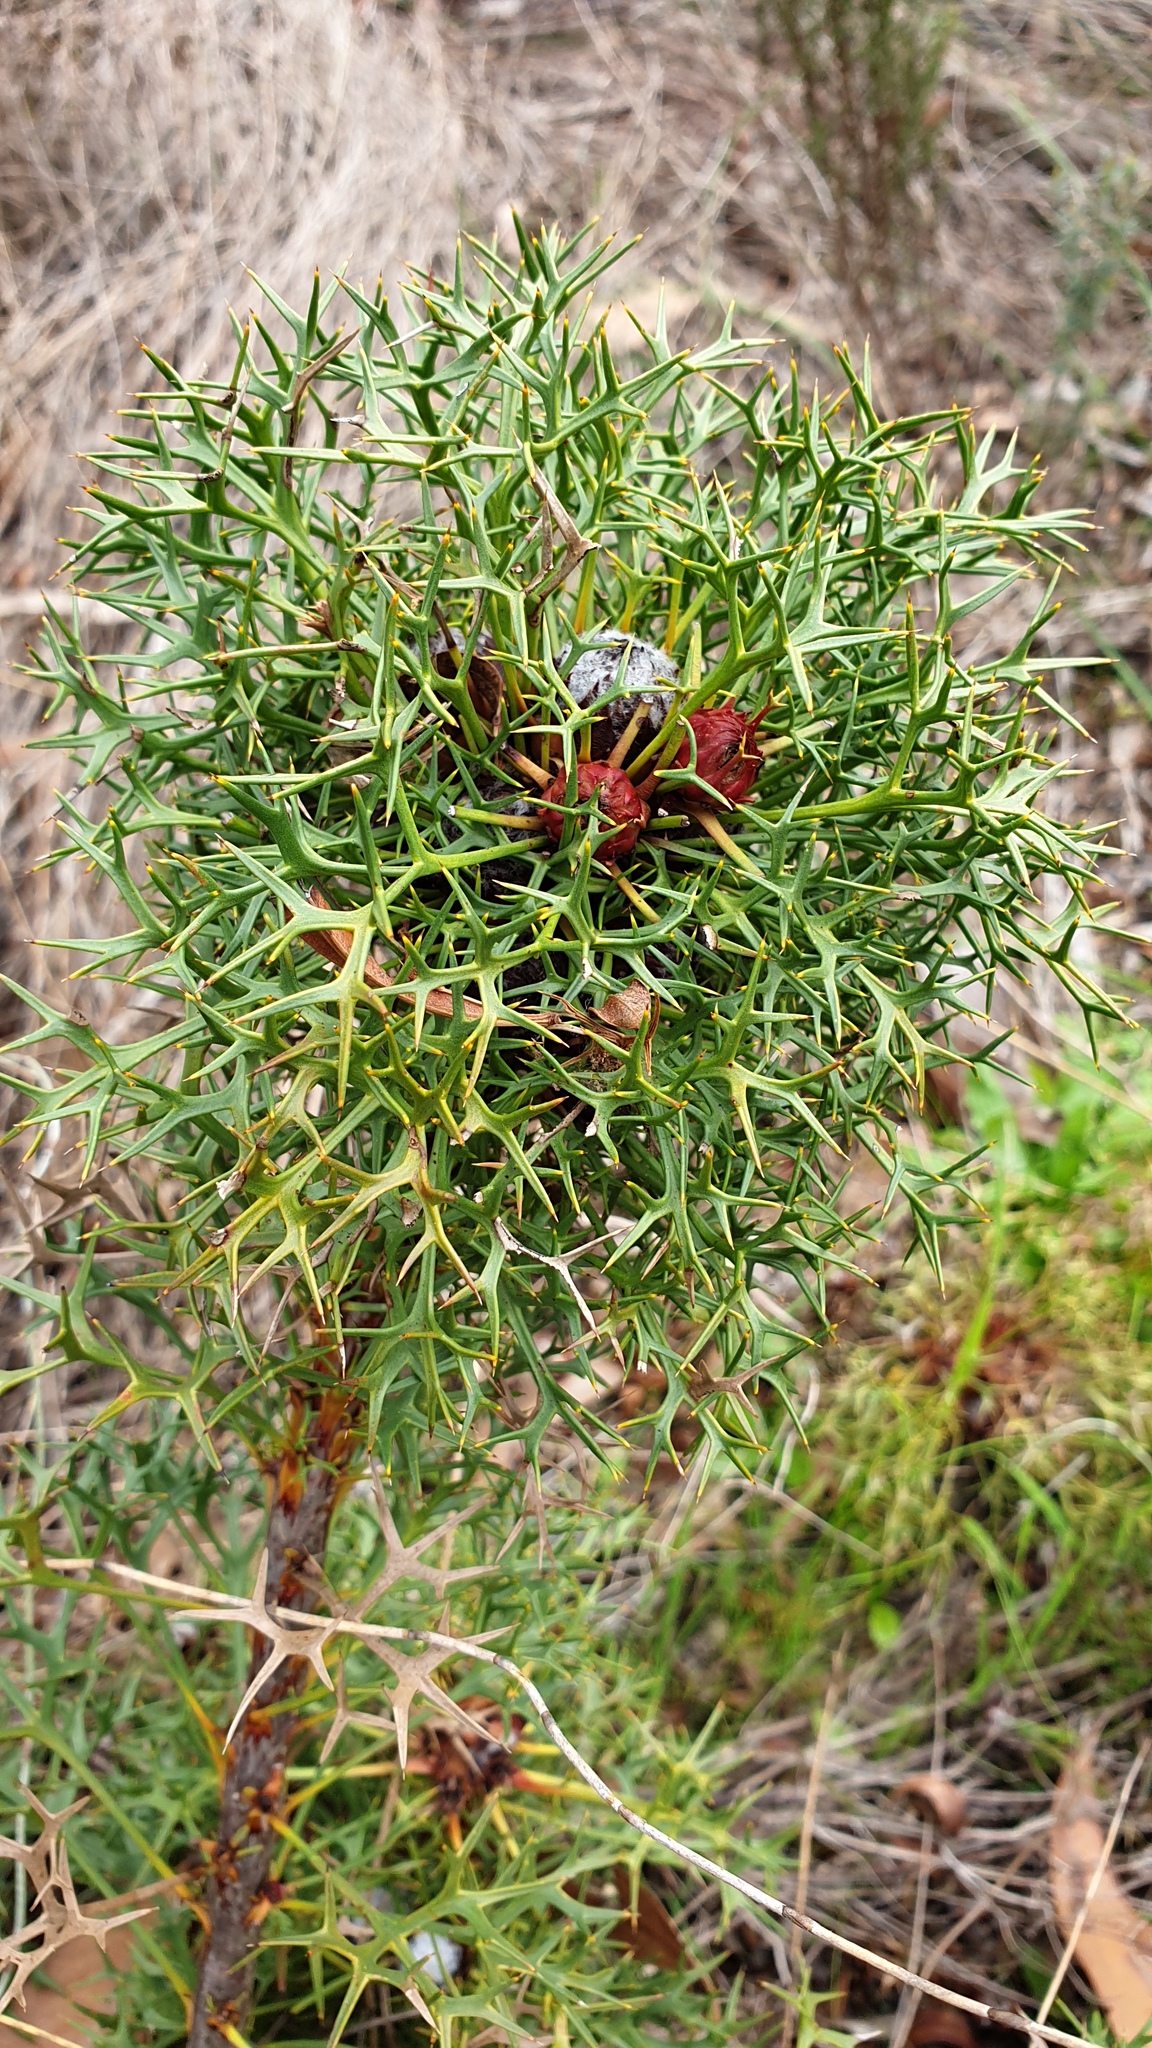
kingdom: Plantae
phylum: Tracheophyta
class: Magnoliopsida
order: Proteales
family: Proteaceae
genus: Isopogon
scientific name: Isopogon ceratophyllus
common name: Horny cone-bush
